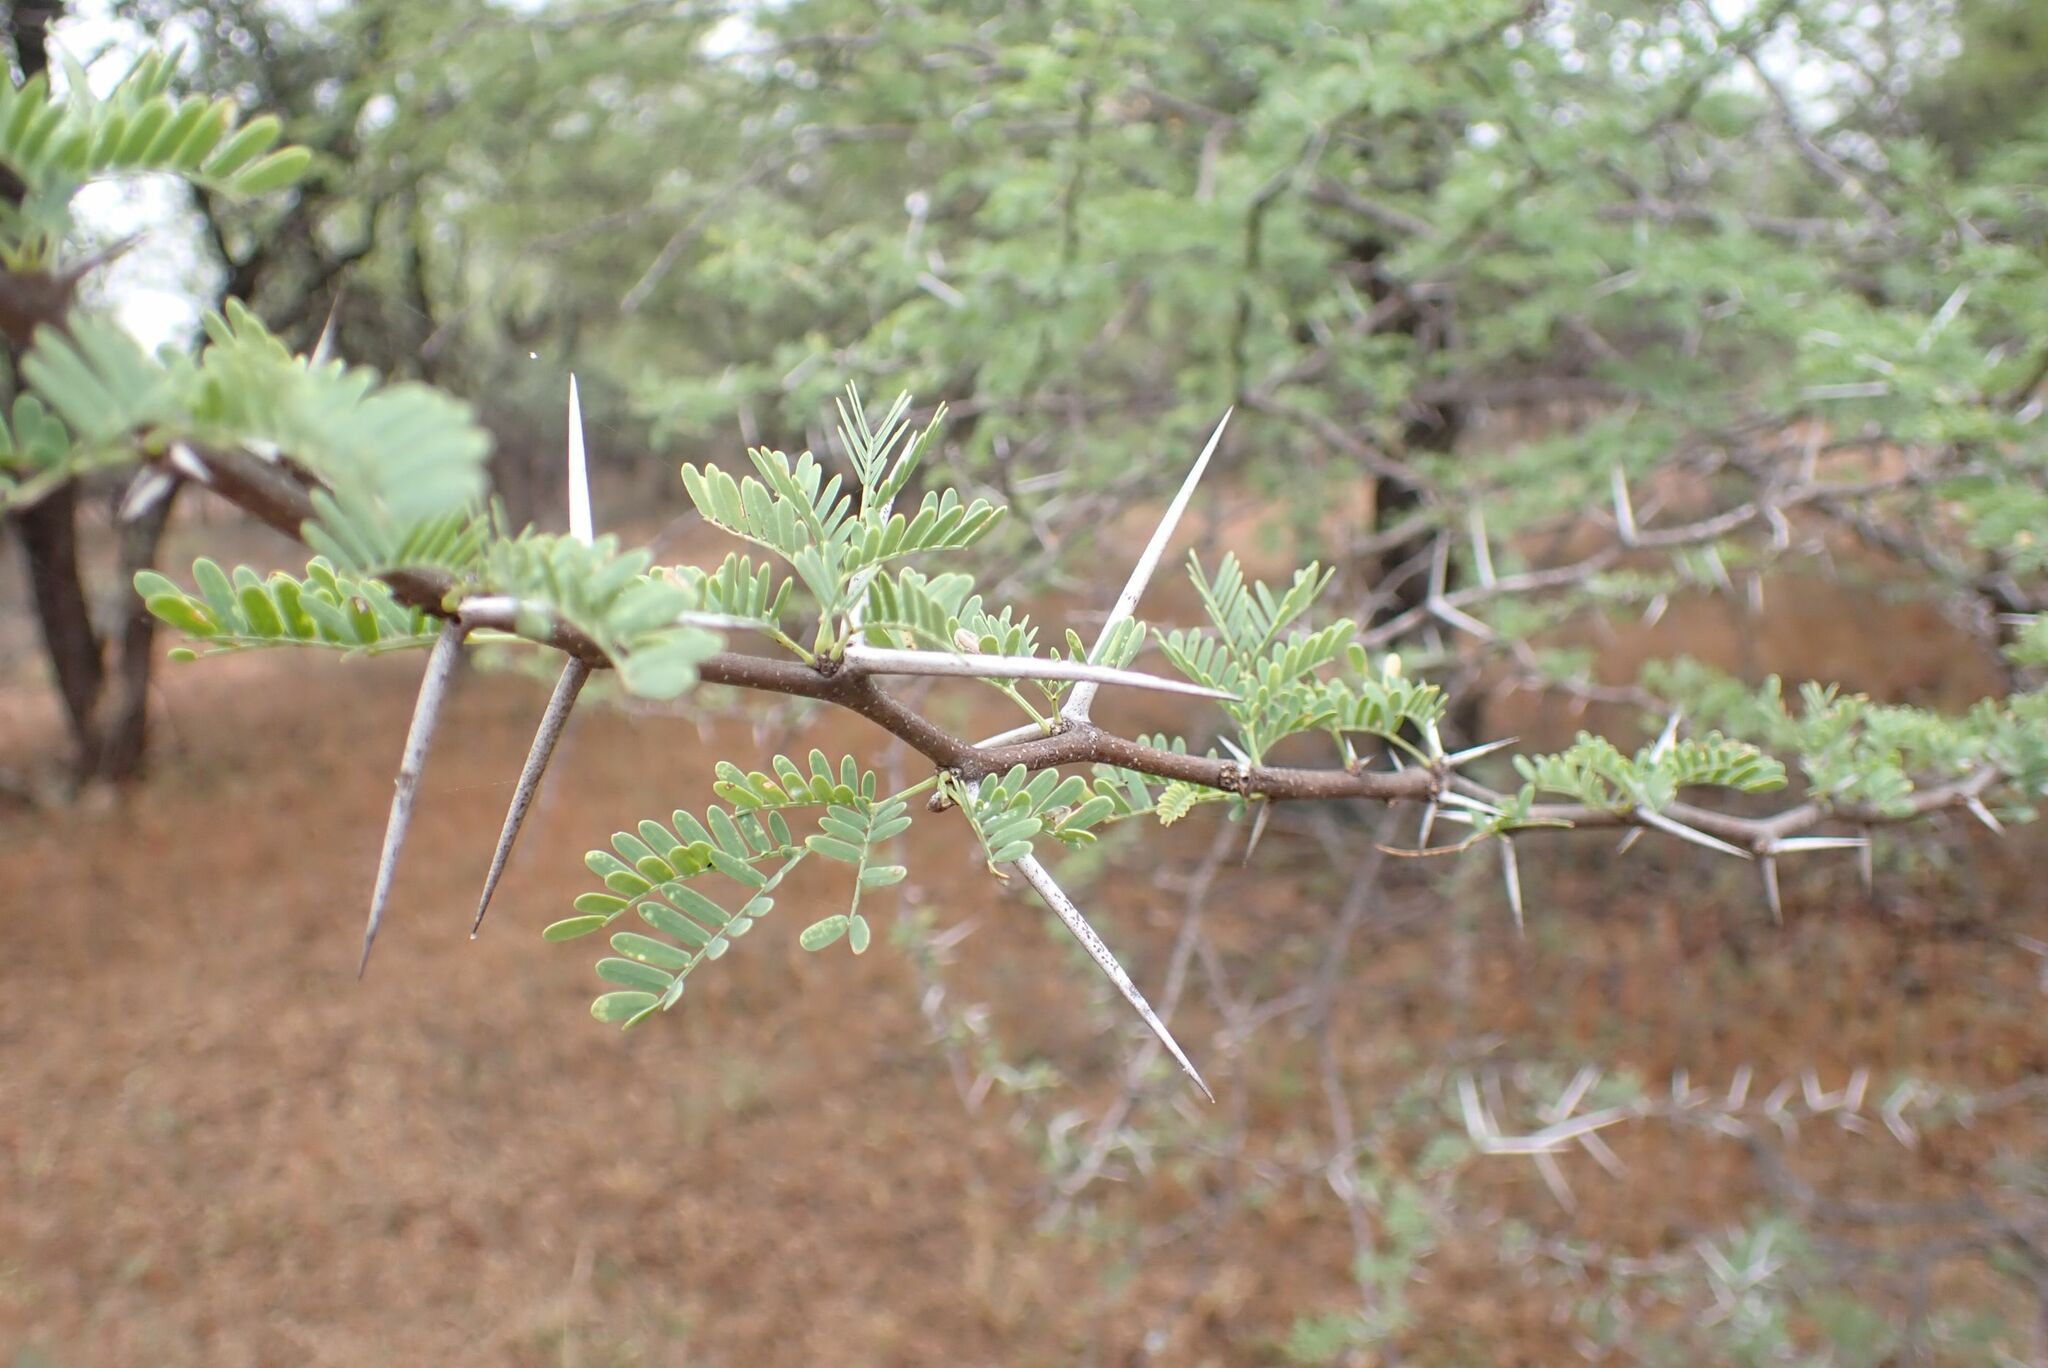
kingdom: Plantae
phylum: Tracheophyta
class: Magnoliopsida
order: Fabales
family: Fabaceae
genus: Vachellia
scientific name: Vachellia grandicornuta
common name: Horned thorn
